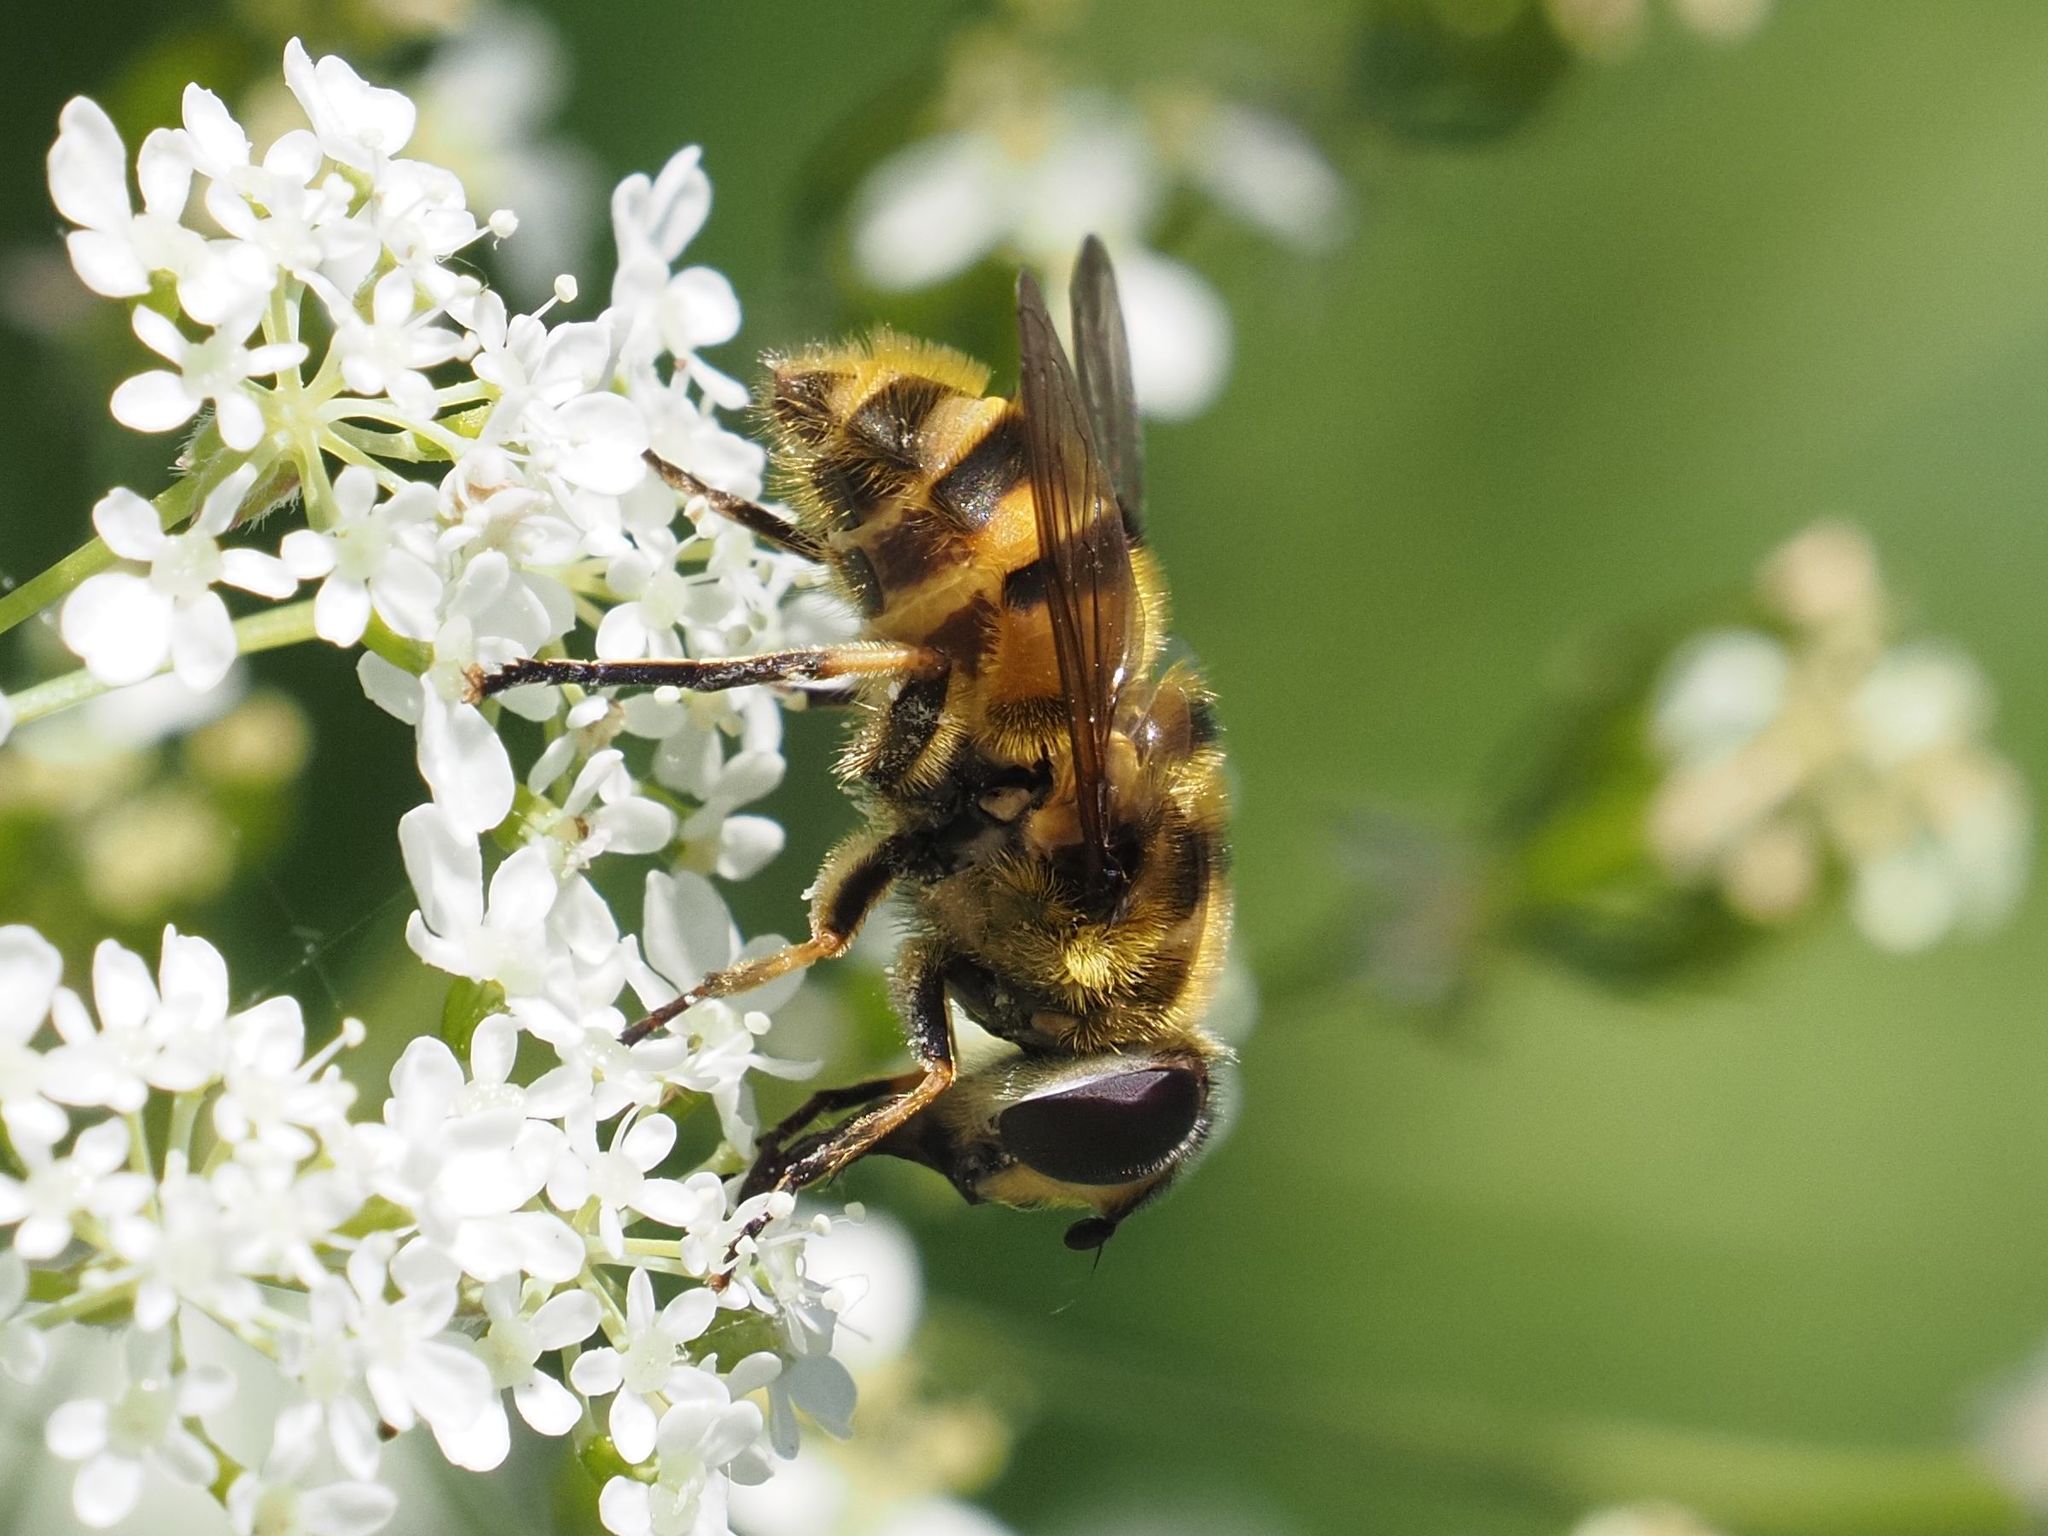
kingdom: Animalia
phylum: Arthropoda
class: Insecta
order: Diptera
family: Syrphidae
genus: Myathropa
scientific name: Myathropa florea
